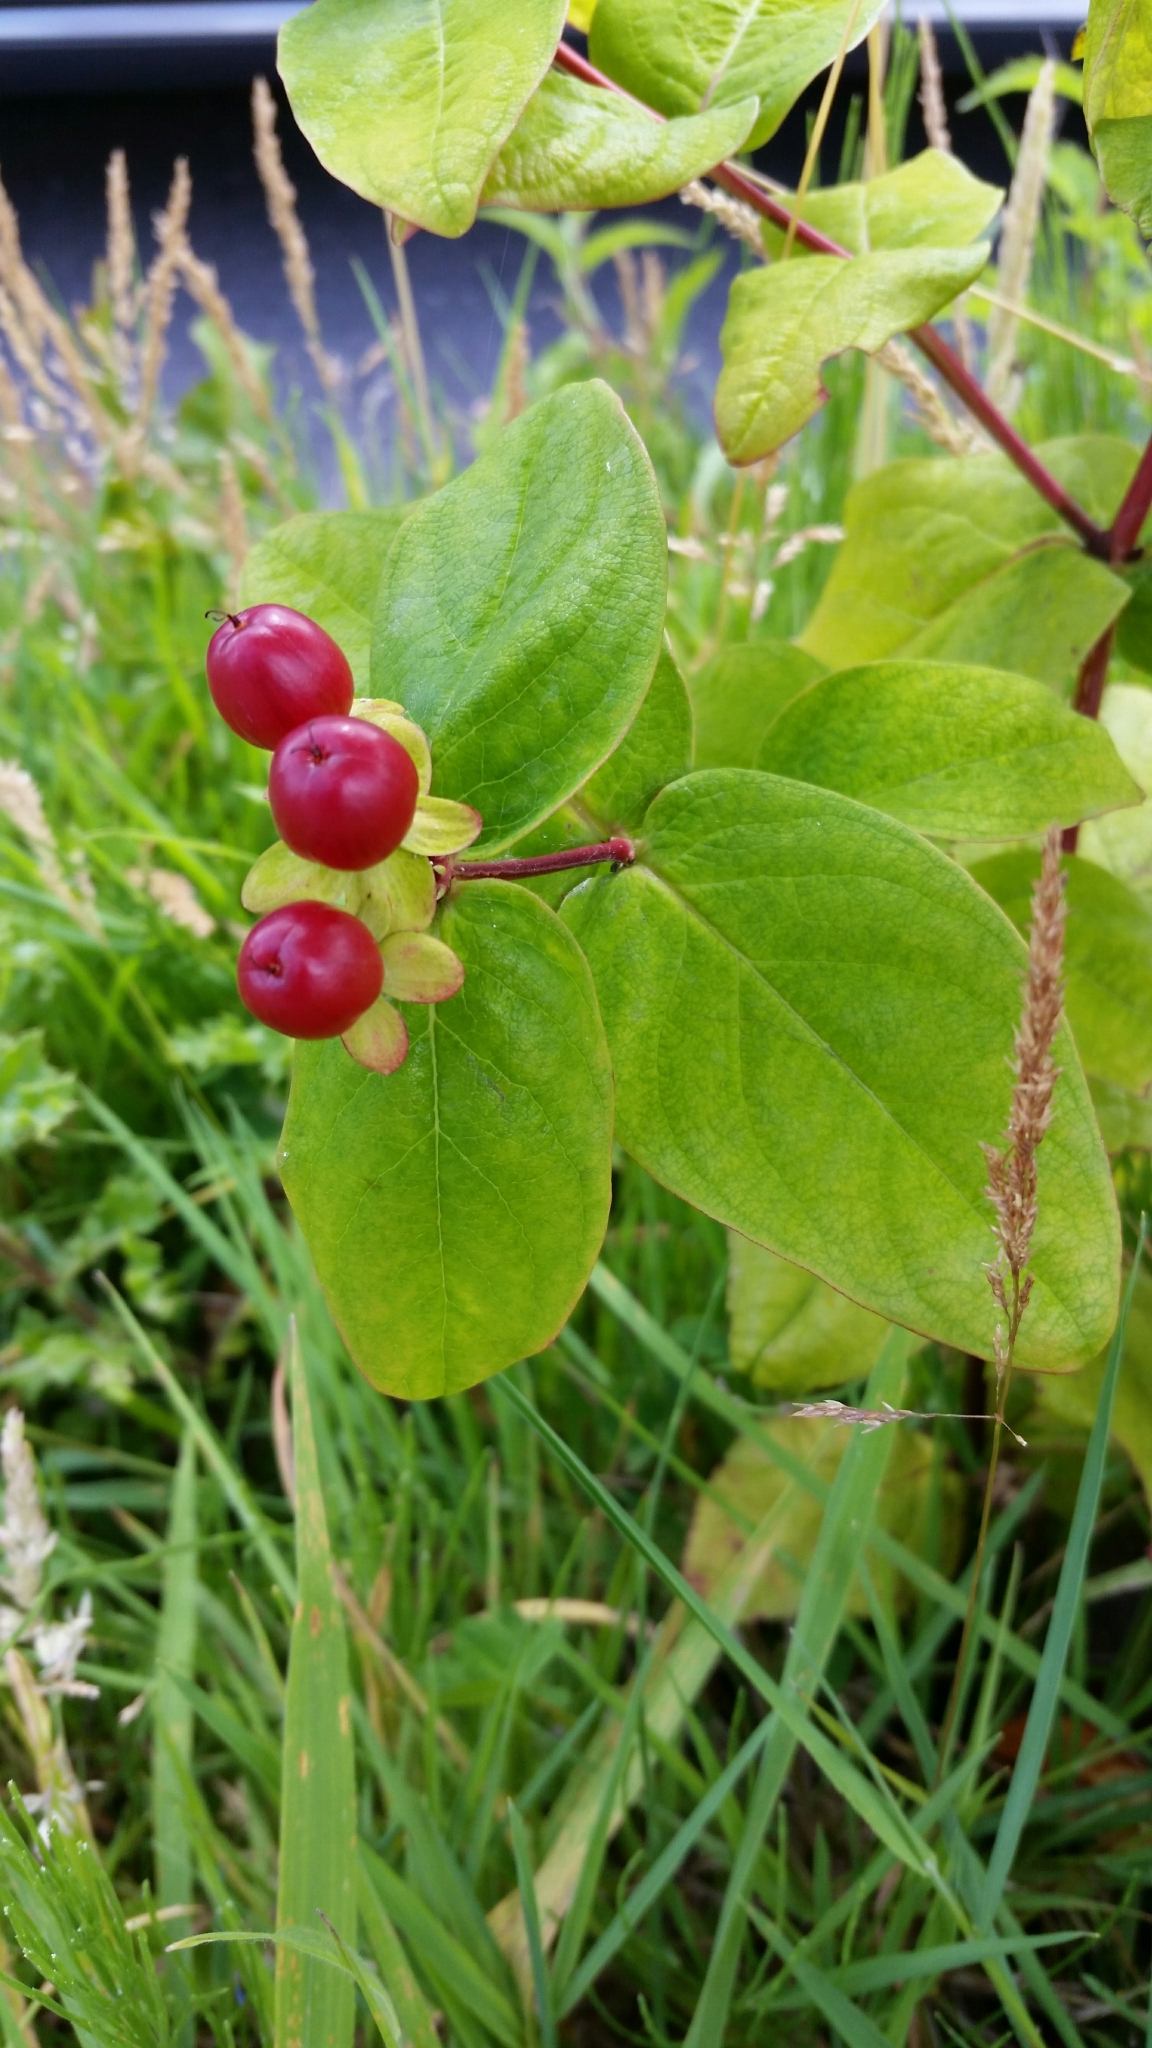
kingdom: Plantae
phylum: Tracheophyta
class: Magnoliopsida
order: Malpighiales
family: Hypericaceae
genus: Hypericum
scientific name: Hypericum androsaemum
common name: Sweet-amber
